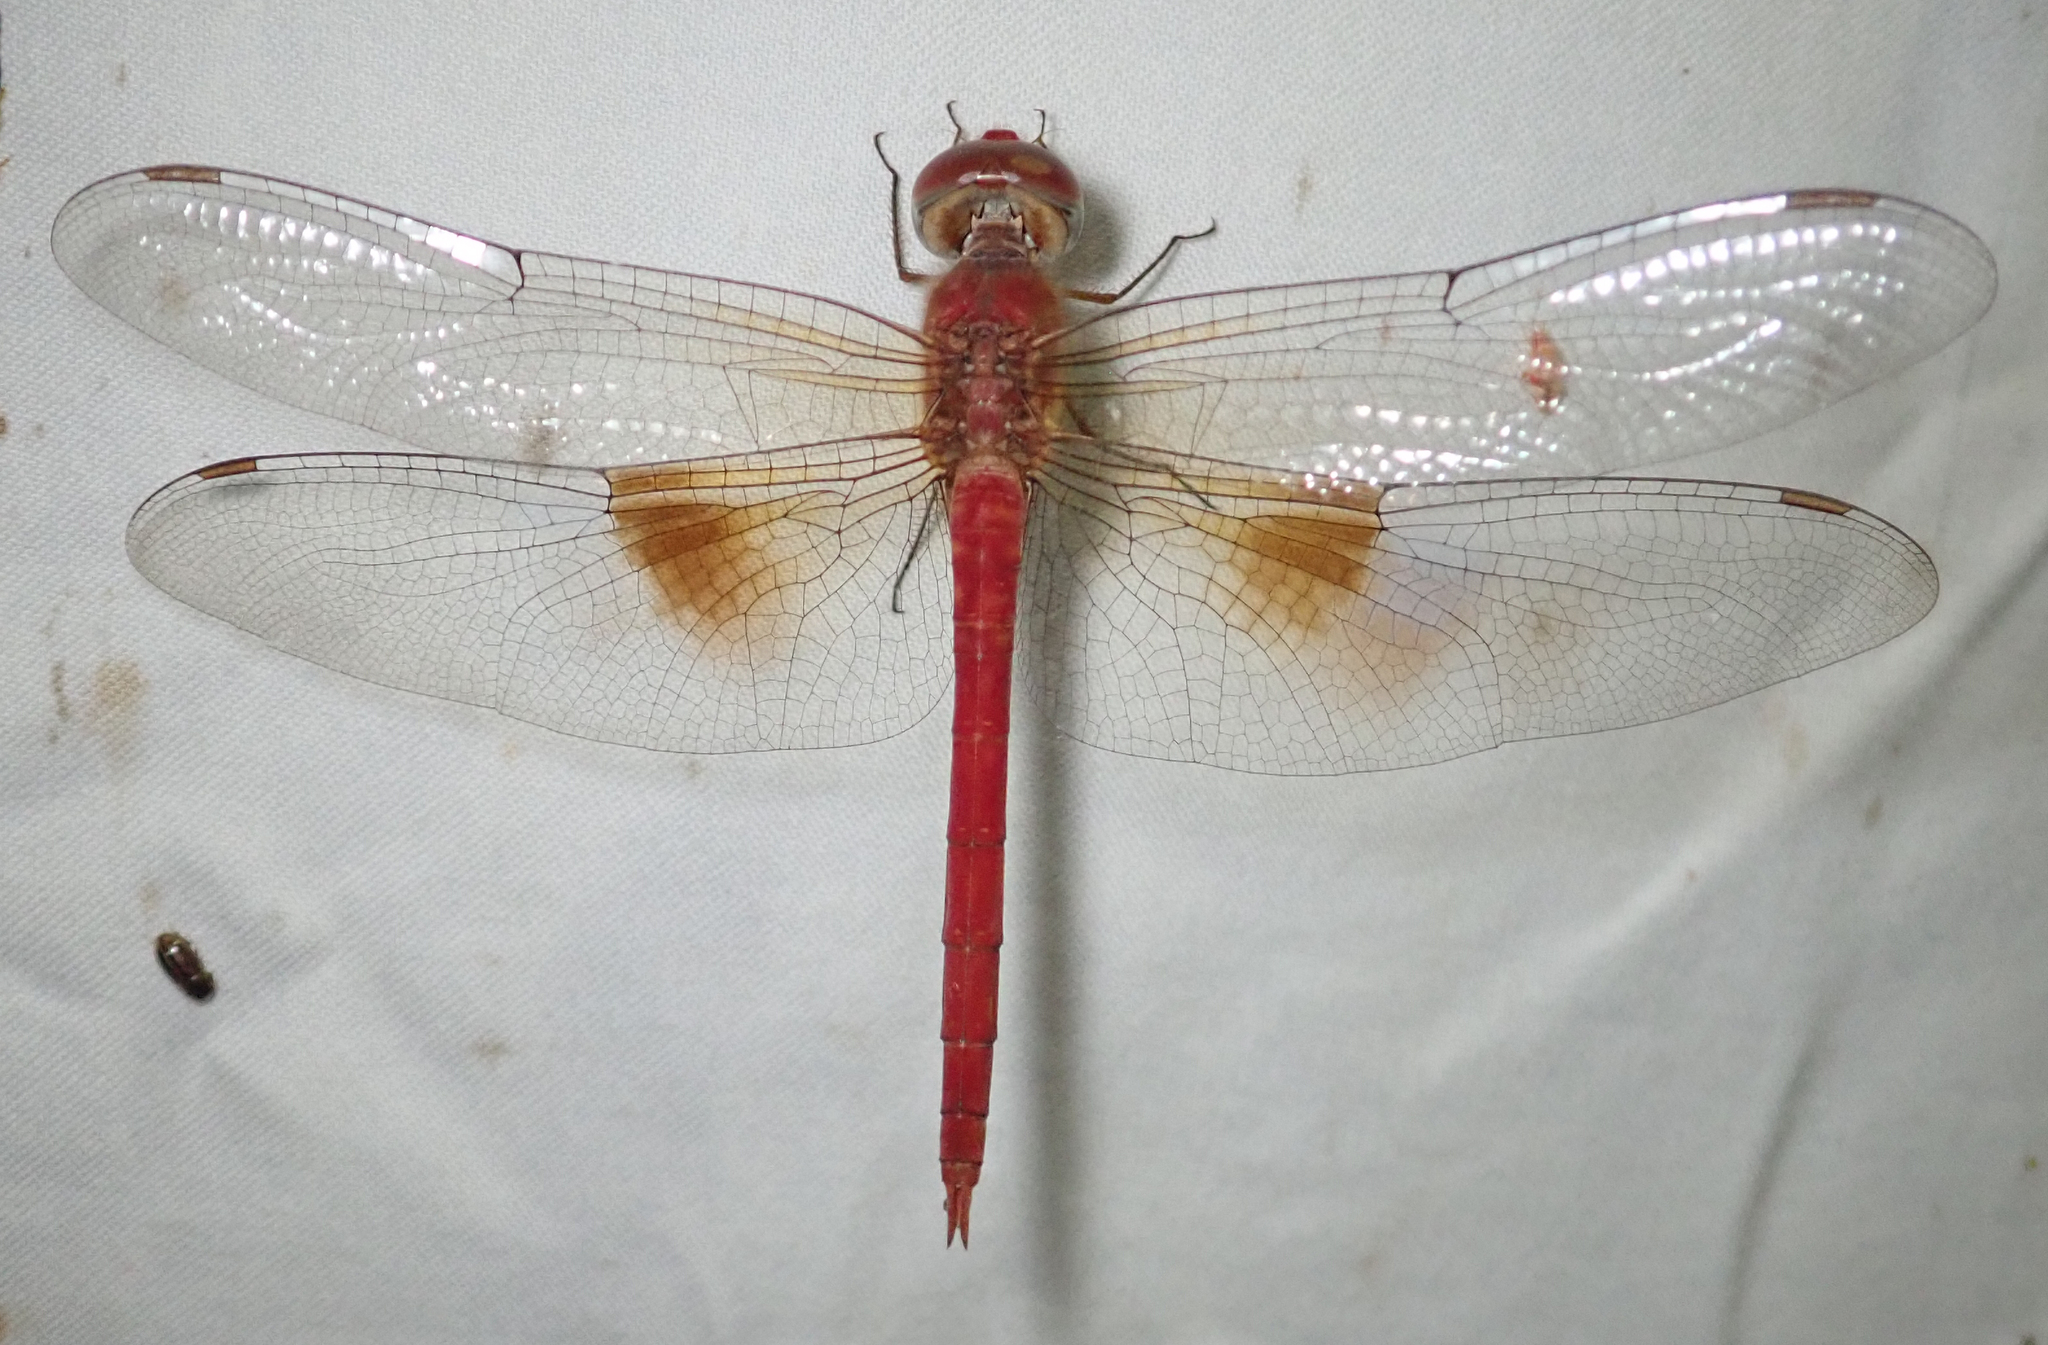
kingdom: Animalia
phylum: Arthropoda
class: Insecta
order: Odonata
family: Libellulidae
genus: Tholymis
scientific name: Tholymis tillarga
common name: Coral-tailed cloud wing
